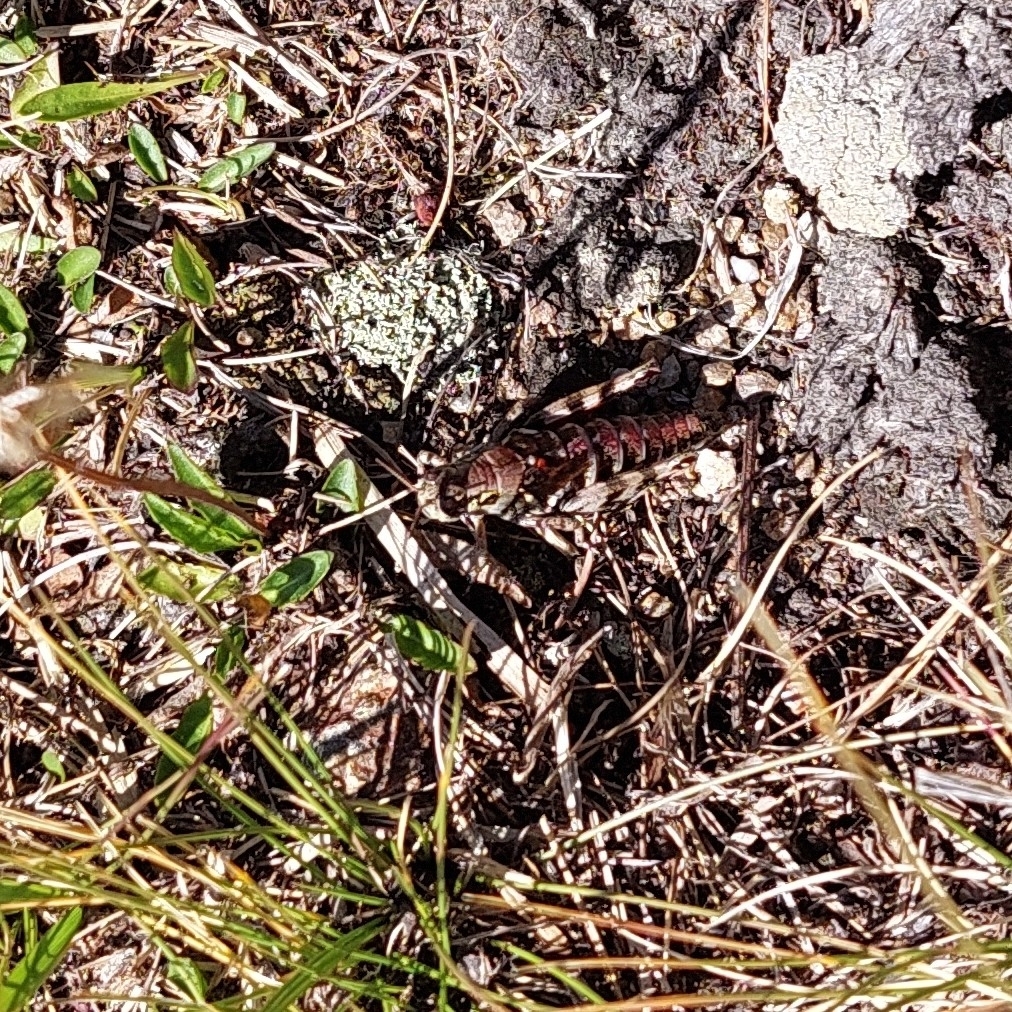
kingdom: Animalia
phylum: Arthropoda
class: Insecta
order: Orthoptera
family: Acrididae
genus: Bohemanella
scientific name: Bohemanella frigida
